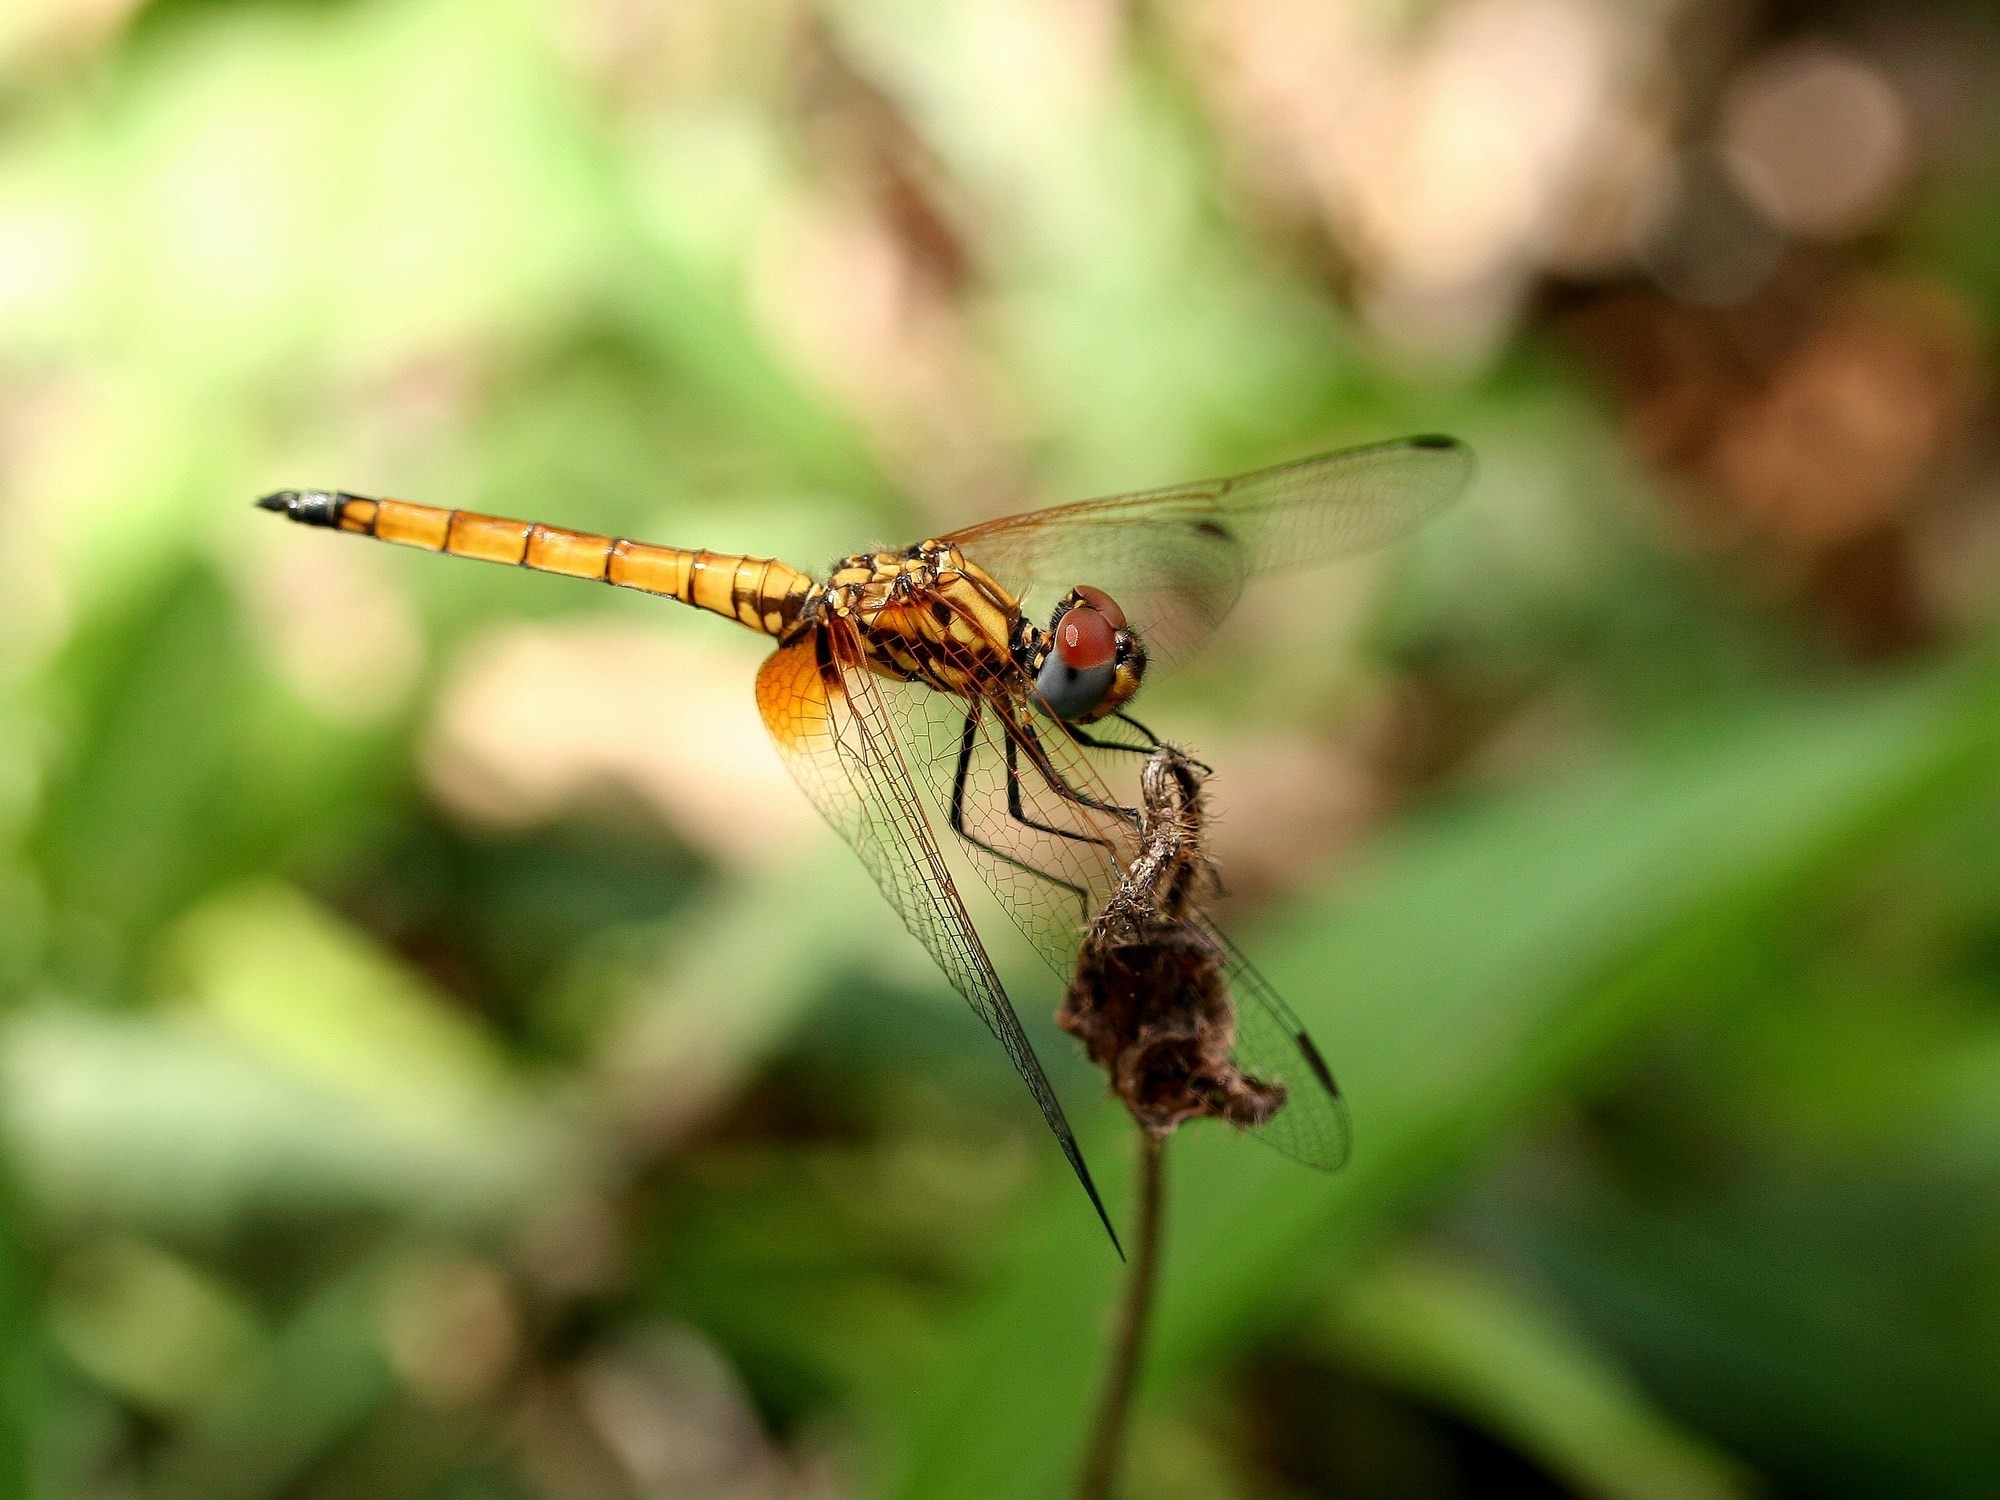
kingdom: Animalia
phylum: Arthropoda
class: Insecta
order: Odonata
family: Libellulidae
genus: Trithemis
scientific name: Trithemis selika
